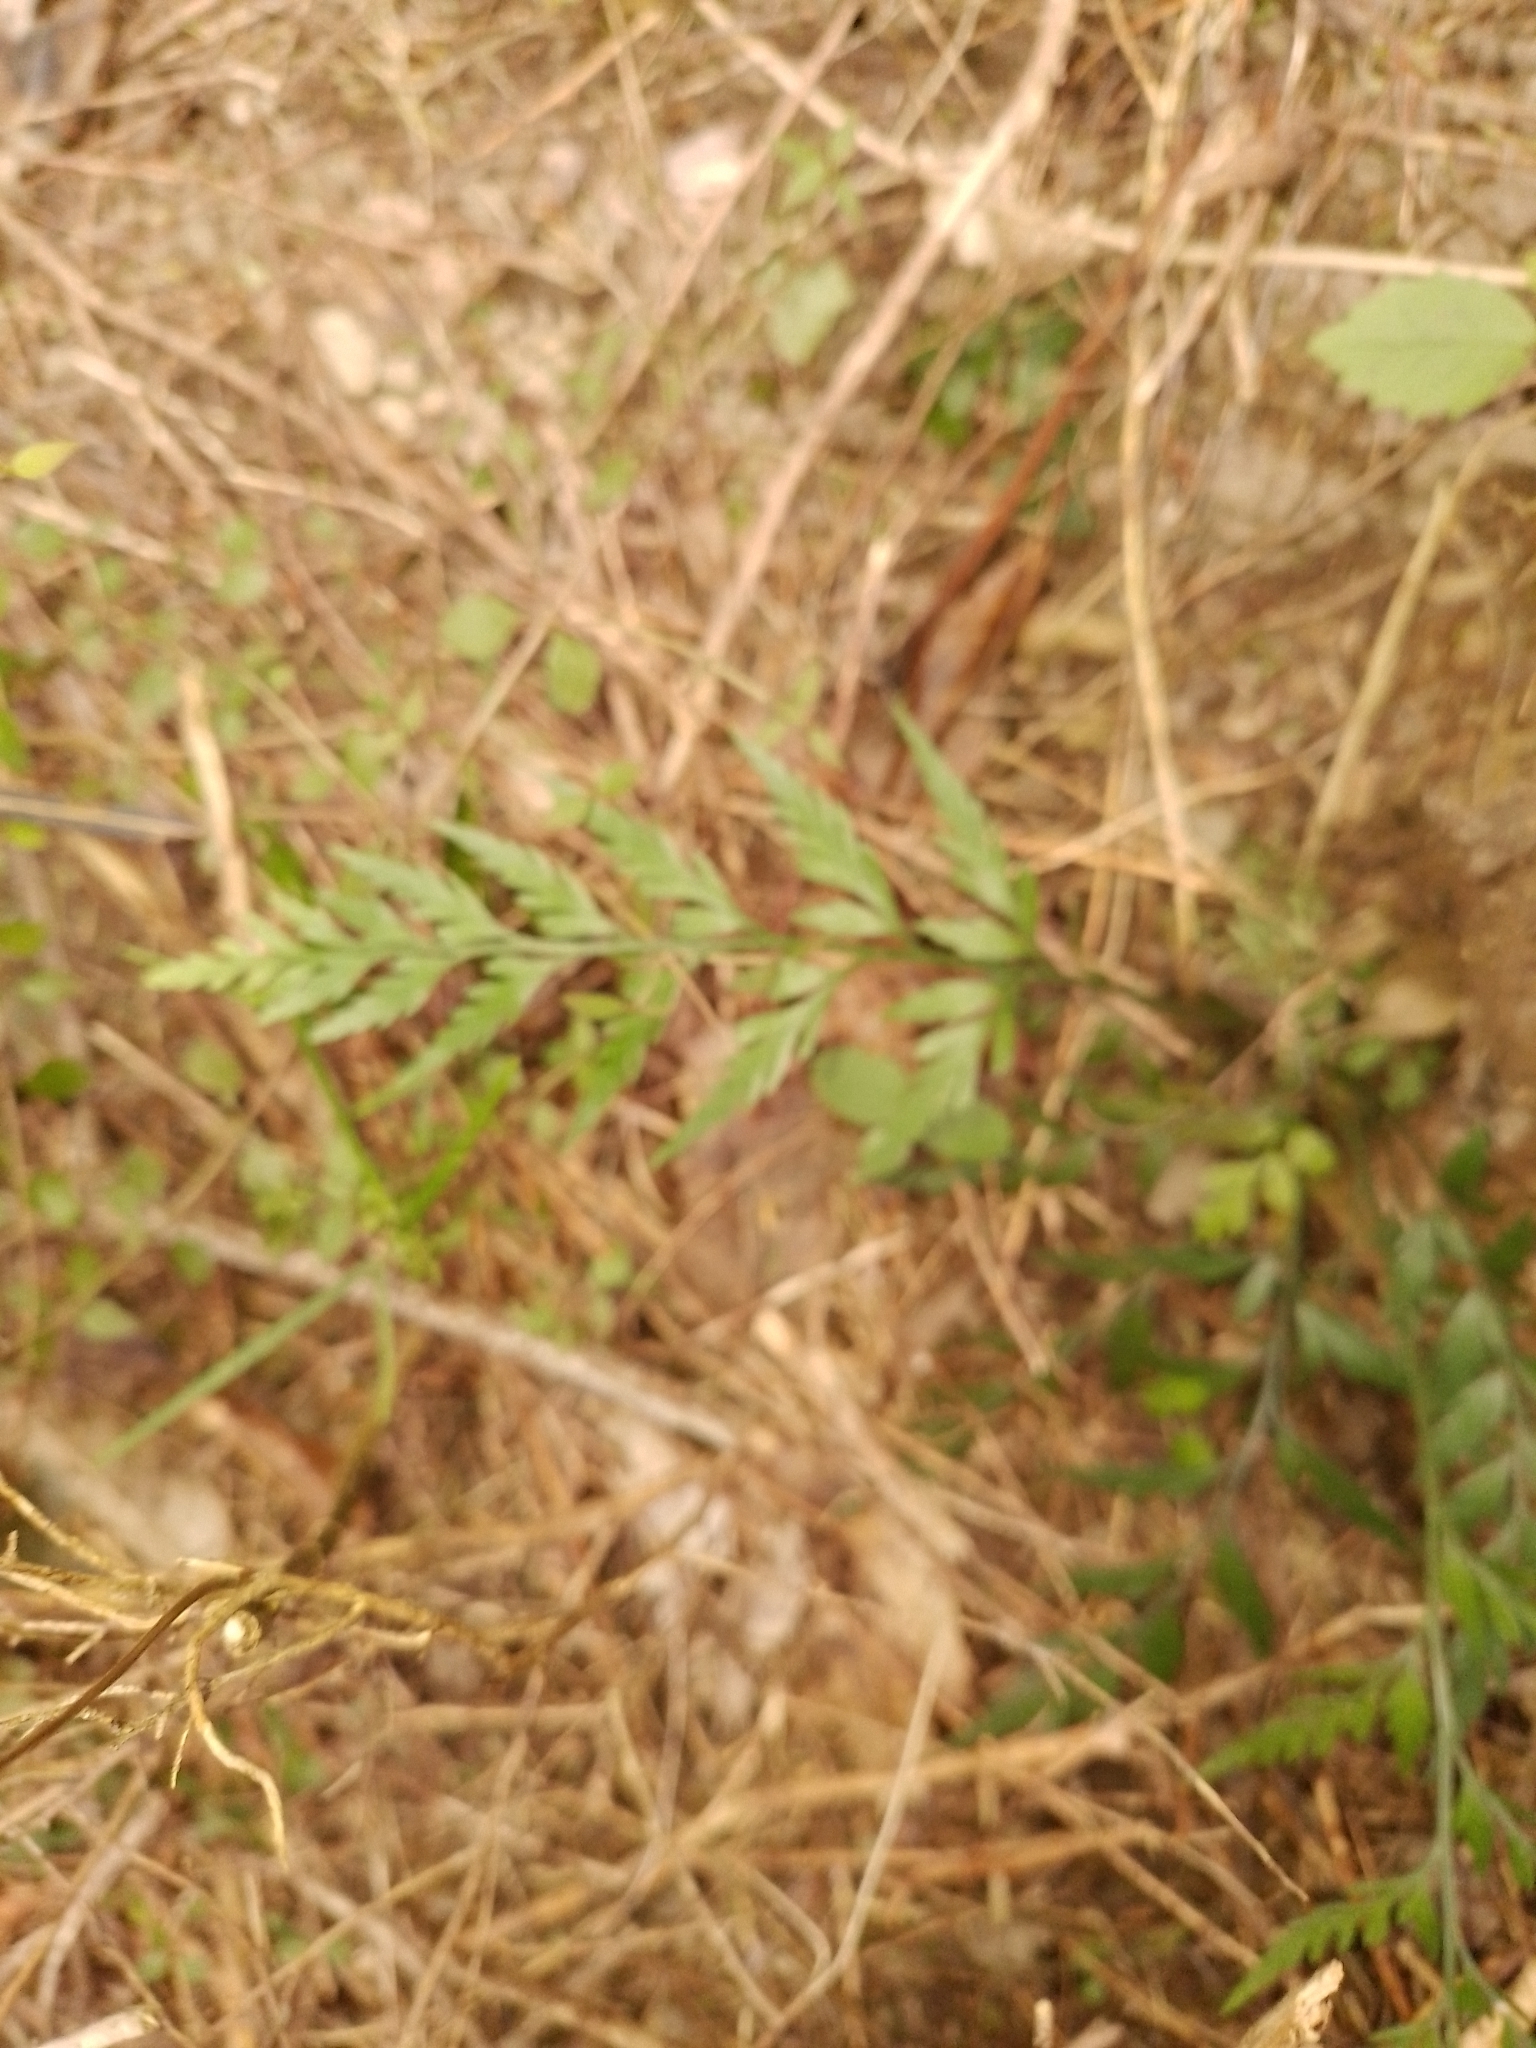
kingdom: Plantae
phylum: Tracheophyta
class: Polypodiopsida
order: Polypodiales
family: Aspleniaceae
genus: Asplenium
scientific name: Asplenium appendiculatum
